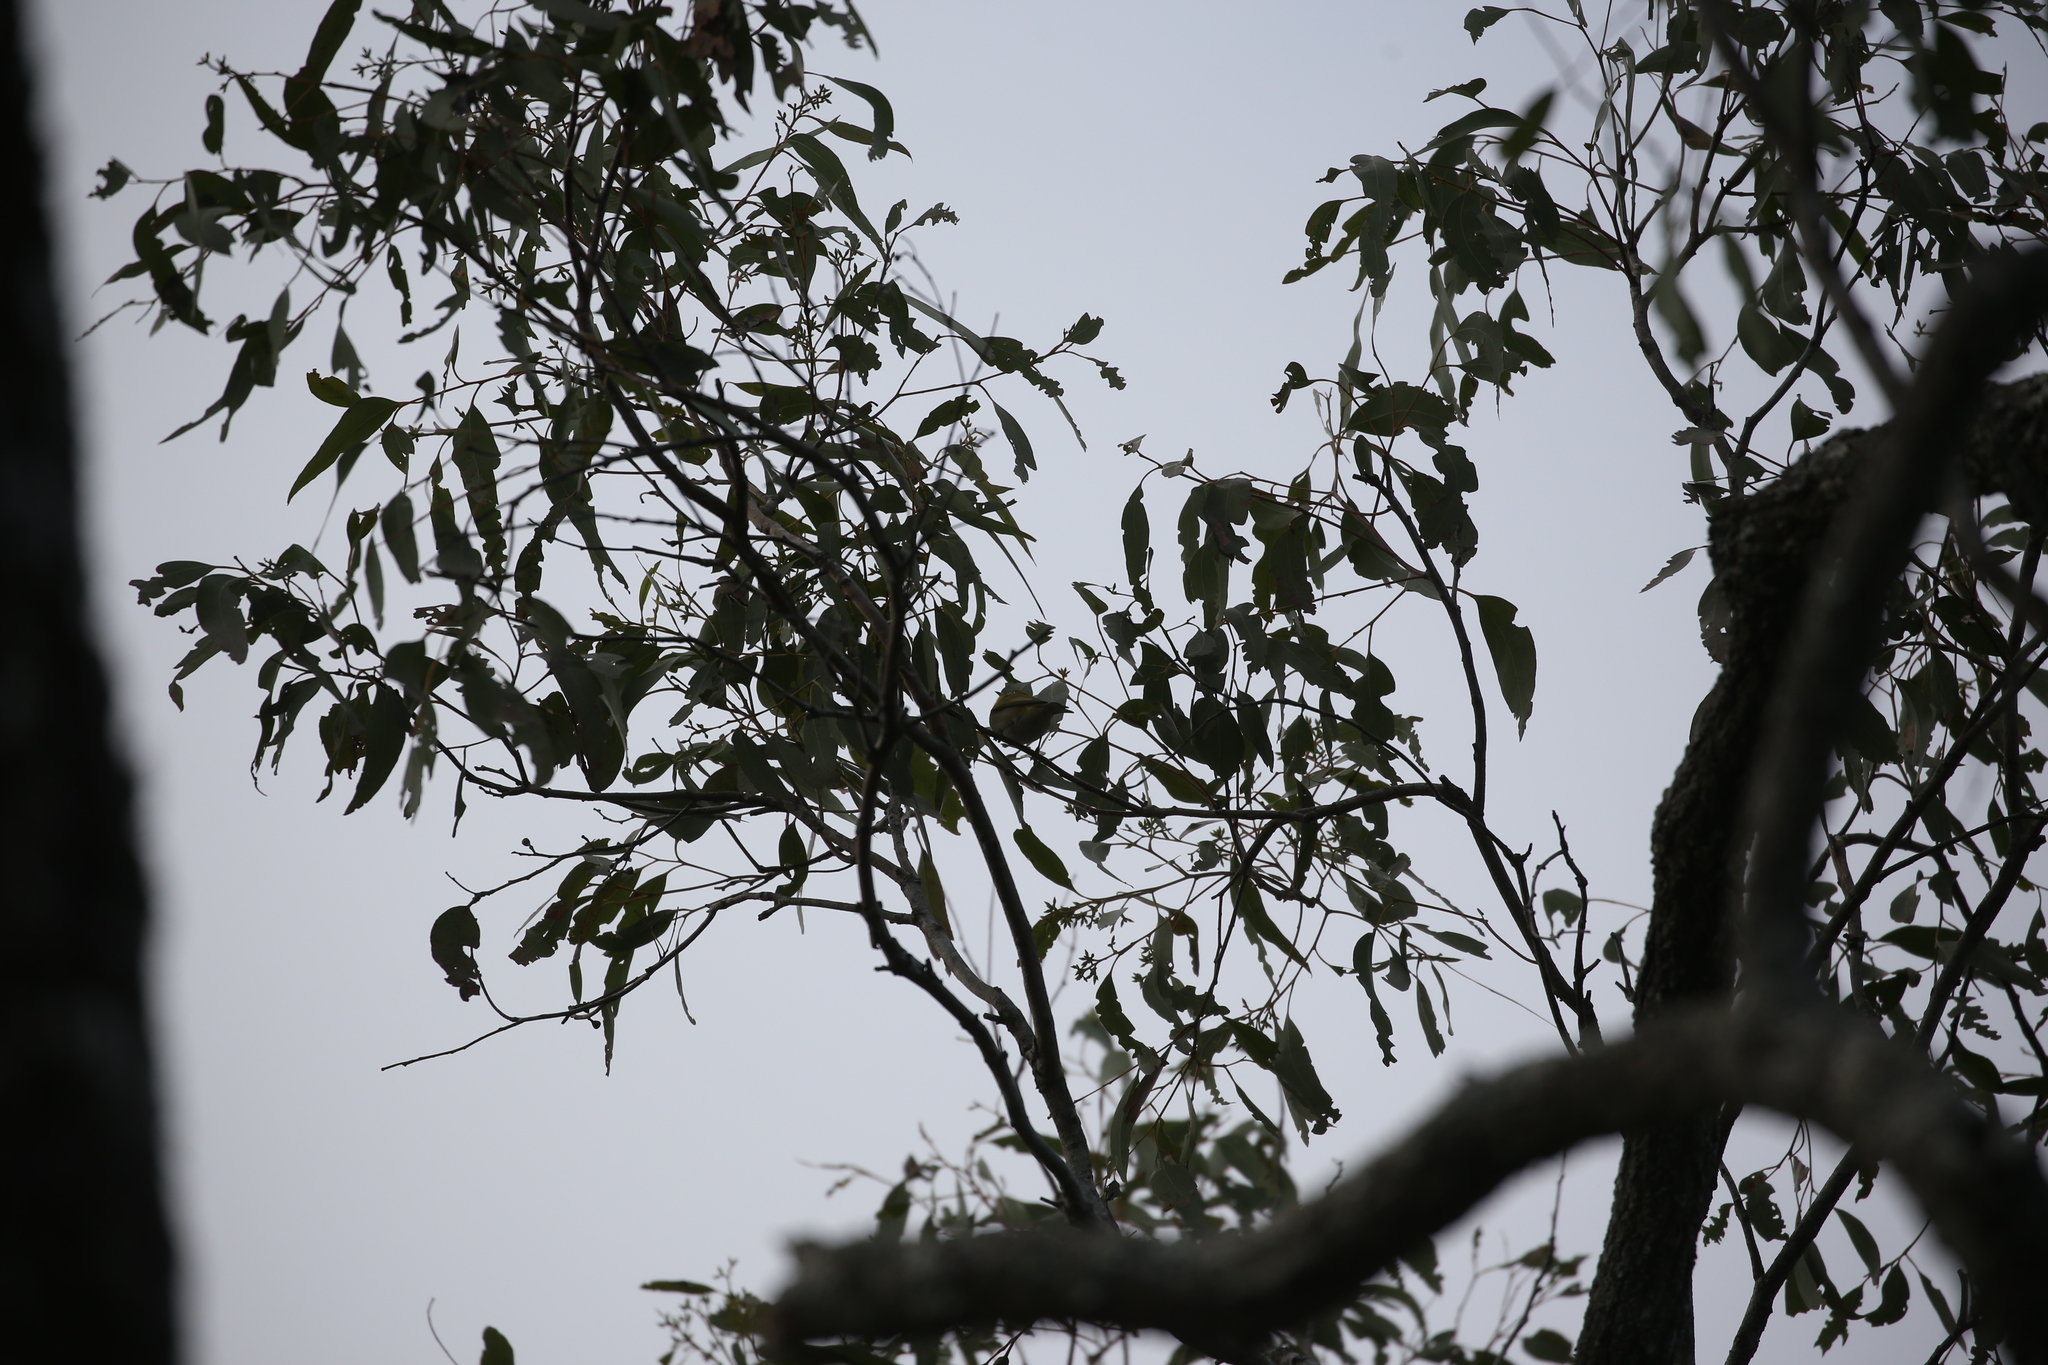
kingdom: Animalia
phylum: Chordata
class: Aves
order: Passeriformes
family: Zosteropidae
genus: Zosterops
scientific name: Zosterops lateralis
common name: Silvereye
